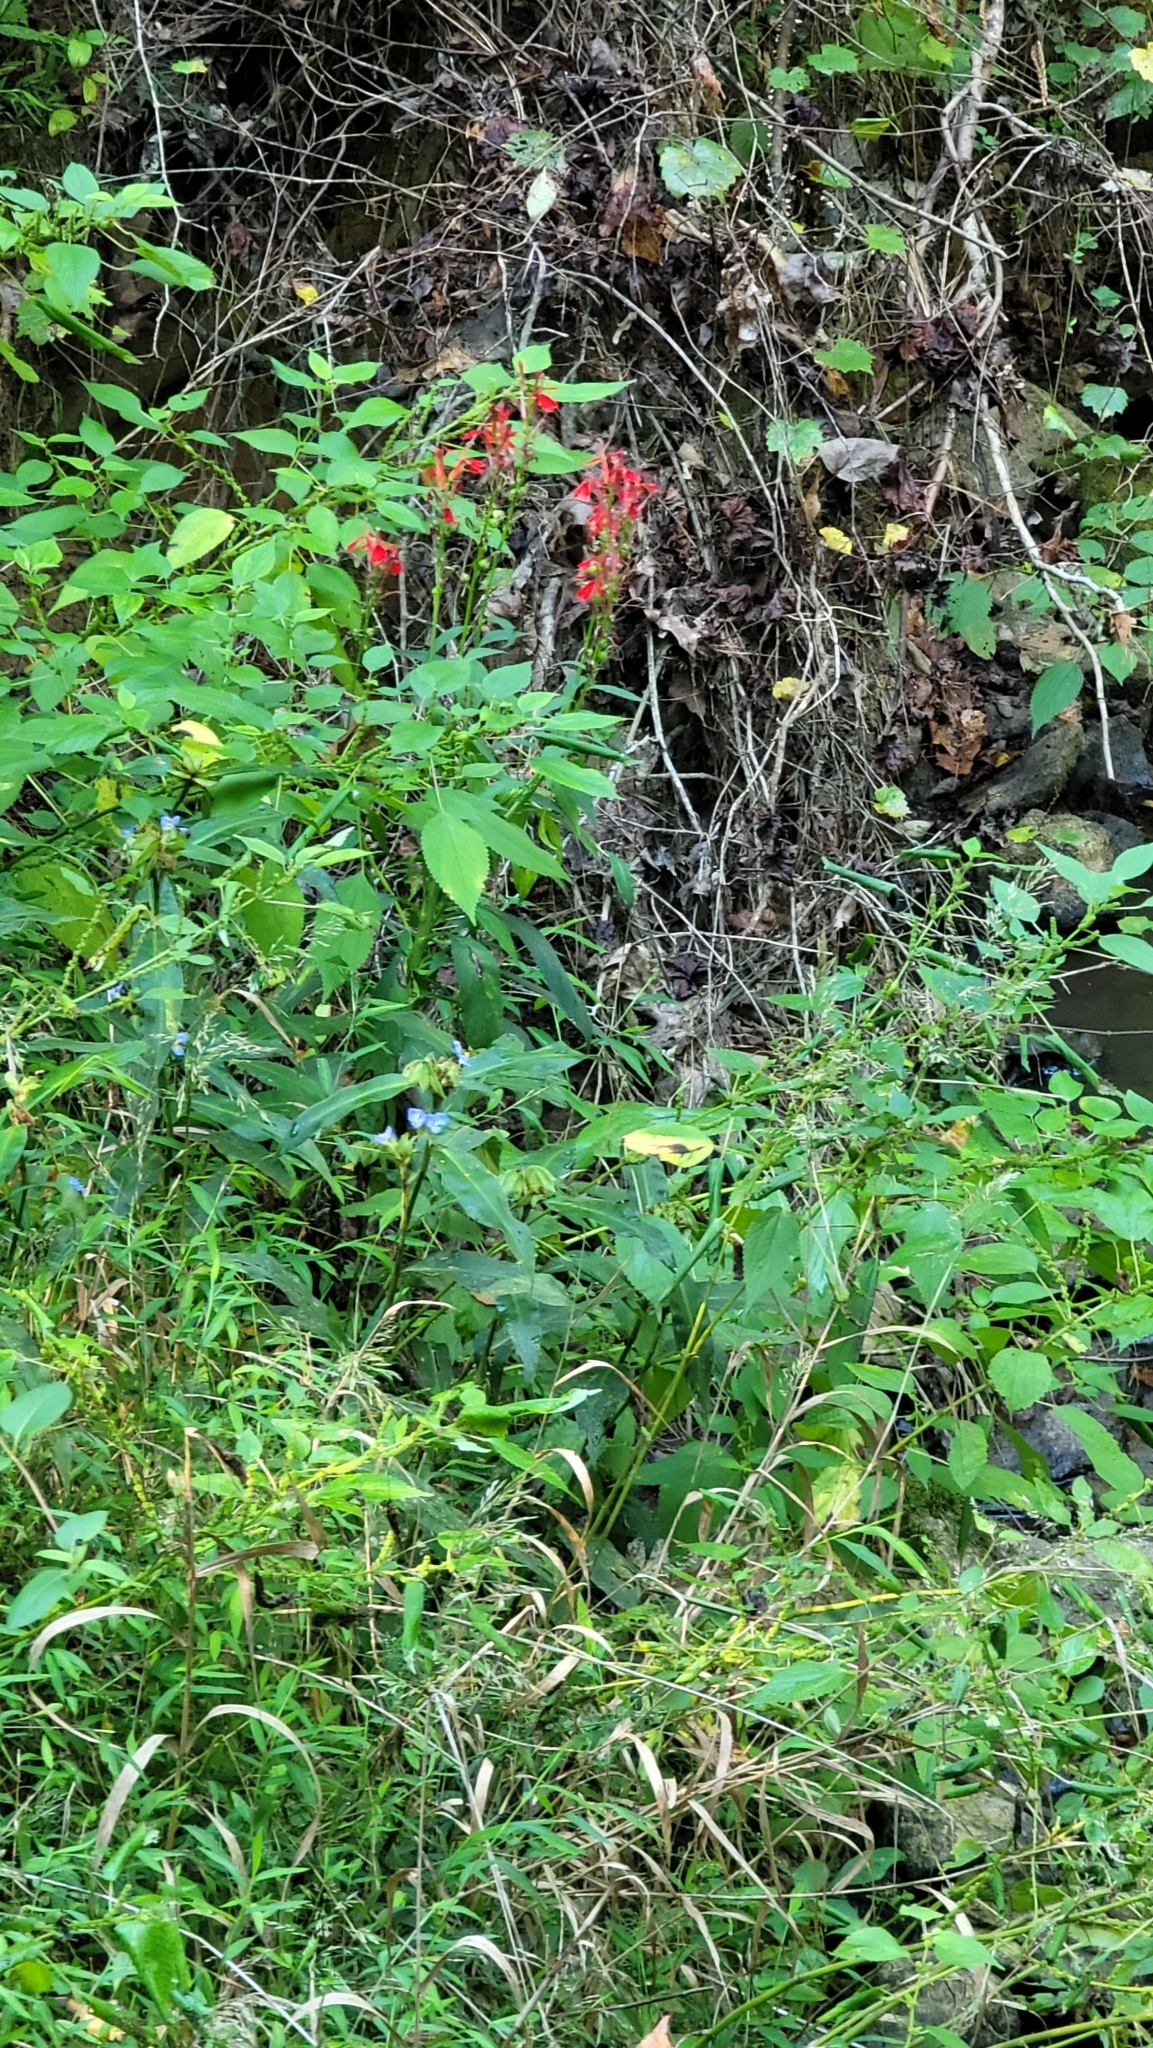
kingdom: Plantae
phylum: Tracheophyta
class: Magnoliopsida
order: Asterales
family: Campanulaceae
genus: Lobelia
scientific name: Lobelia cardinalis
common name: Cardinal flower
